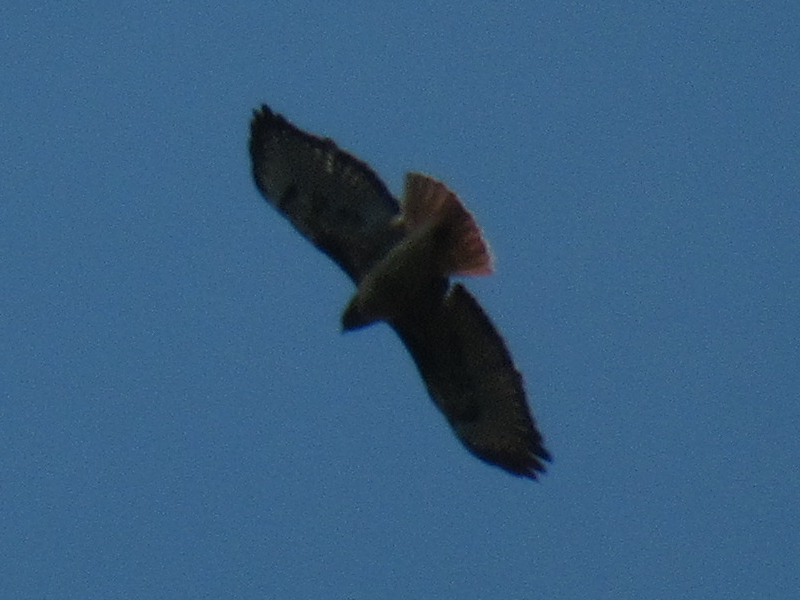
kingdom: Animalia
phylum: Chordata
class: Aves
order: Accipitriformes
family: Accipitridae
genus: Buteo
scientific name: Buteo jamaicensis
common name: Red-tailed hawk
